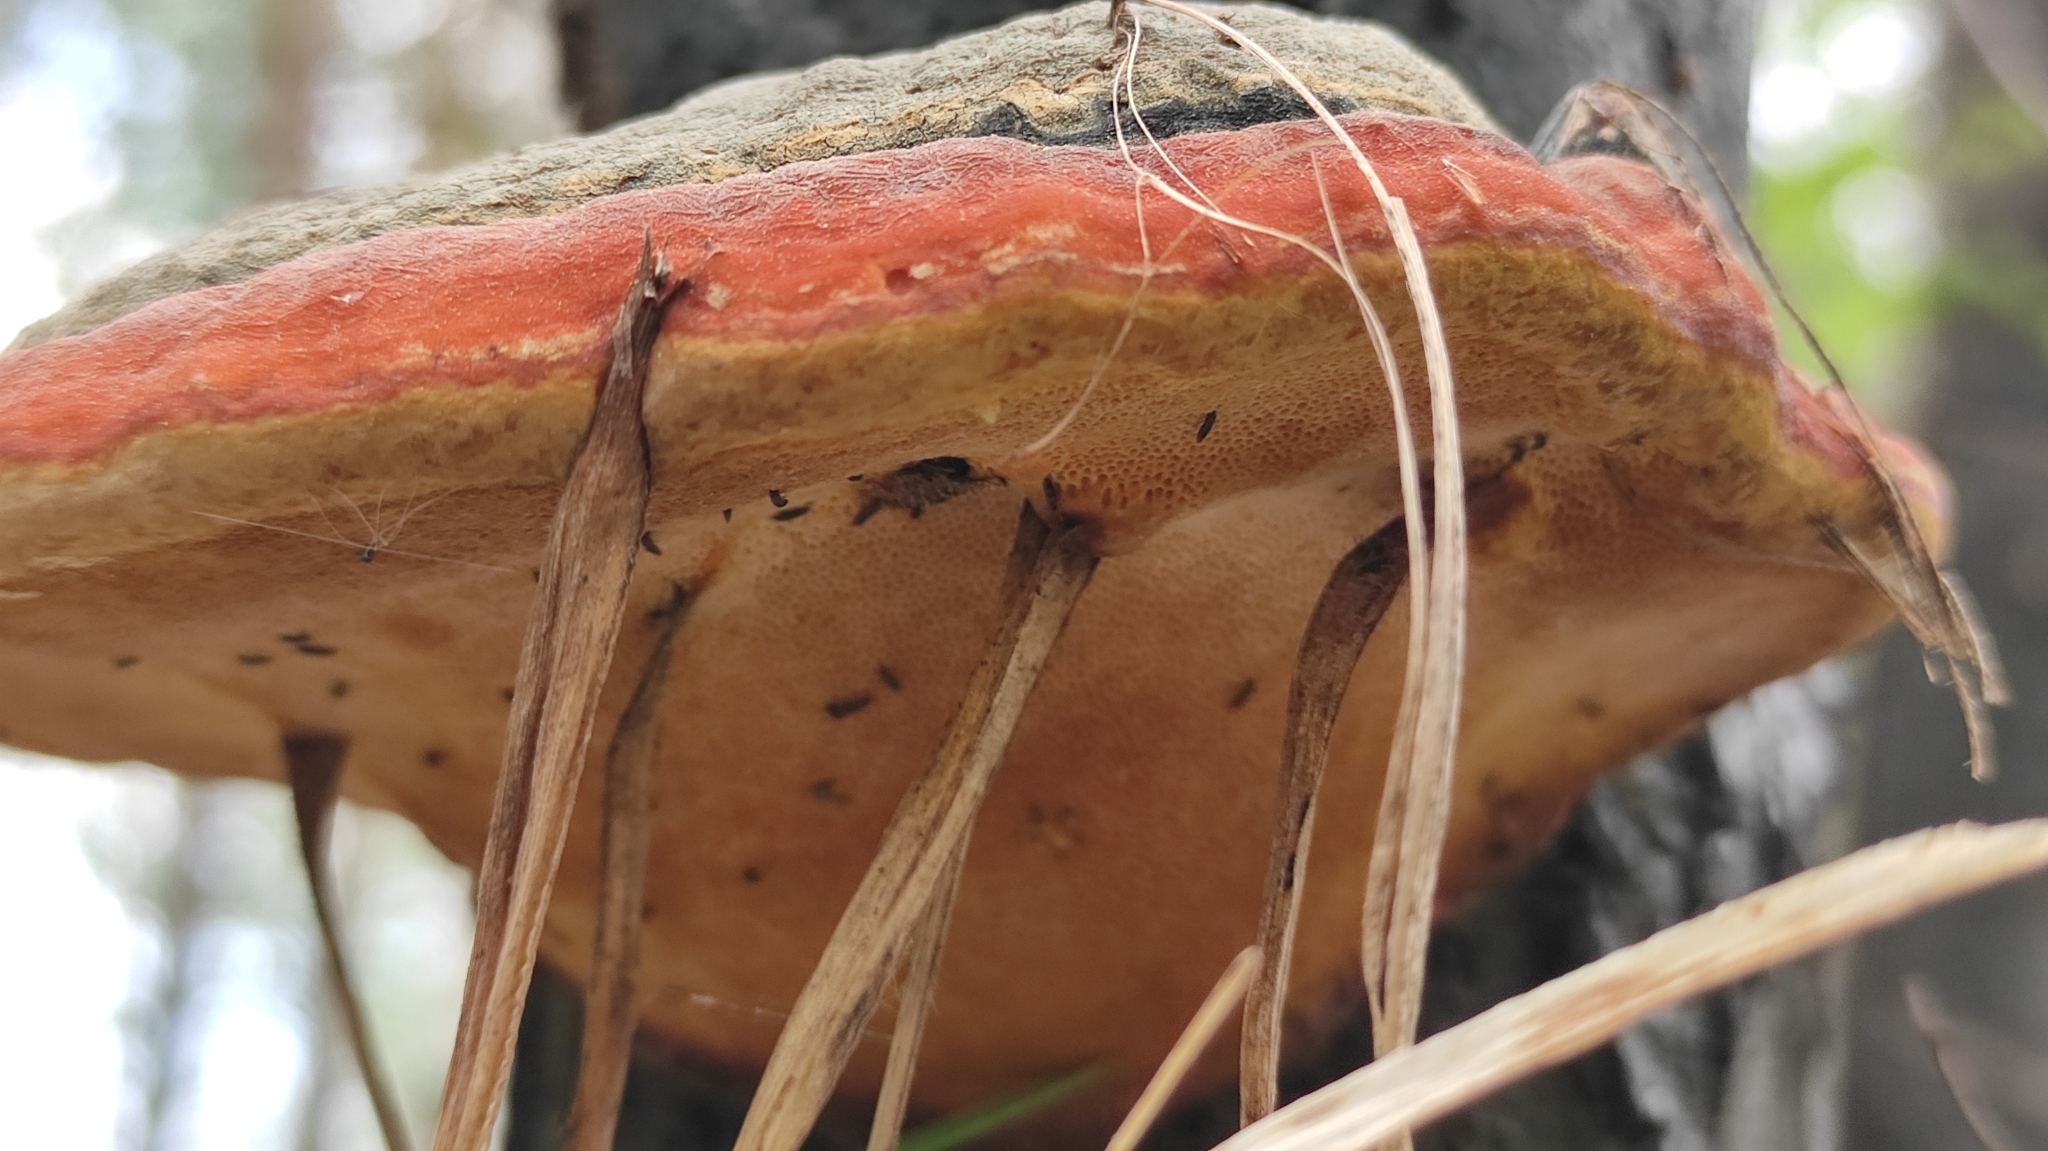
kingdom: Fungi
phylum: Basidiomycota
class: Agaricomycetes
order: Polyporales
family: Fomitopsidaceae
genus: Fomitopsis
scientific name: Fomitopsis pinicola
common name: Red-belted bracket
